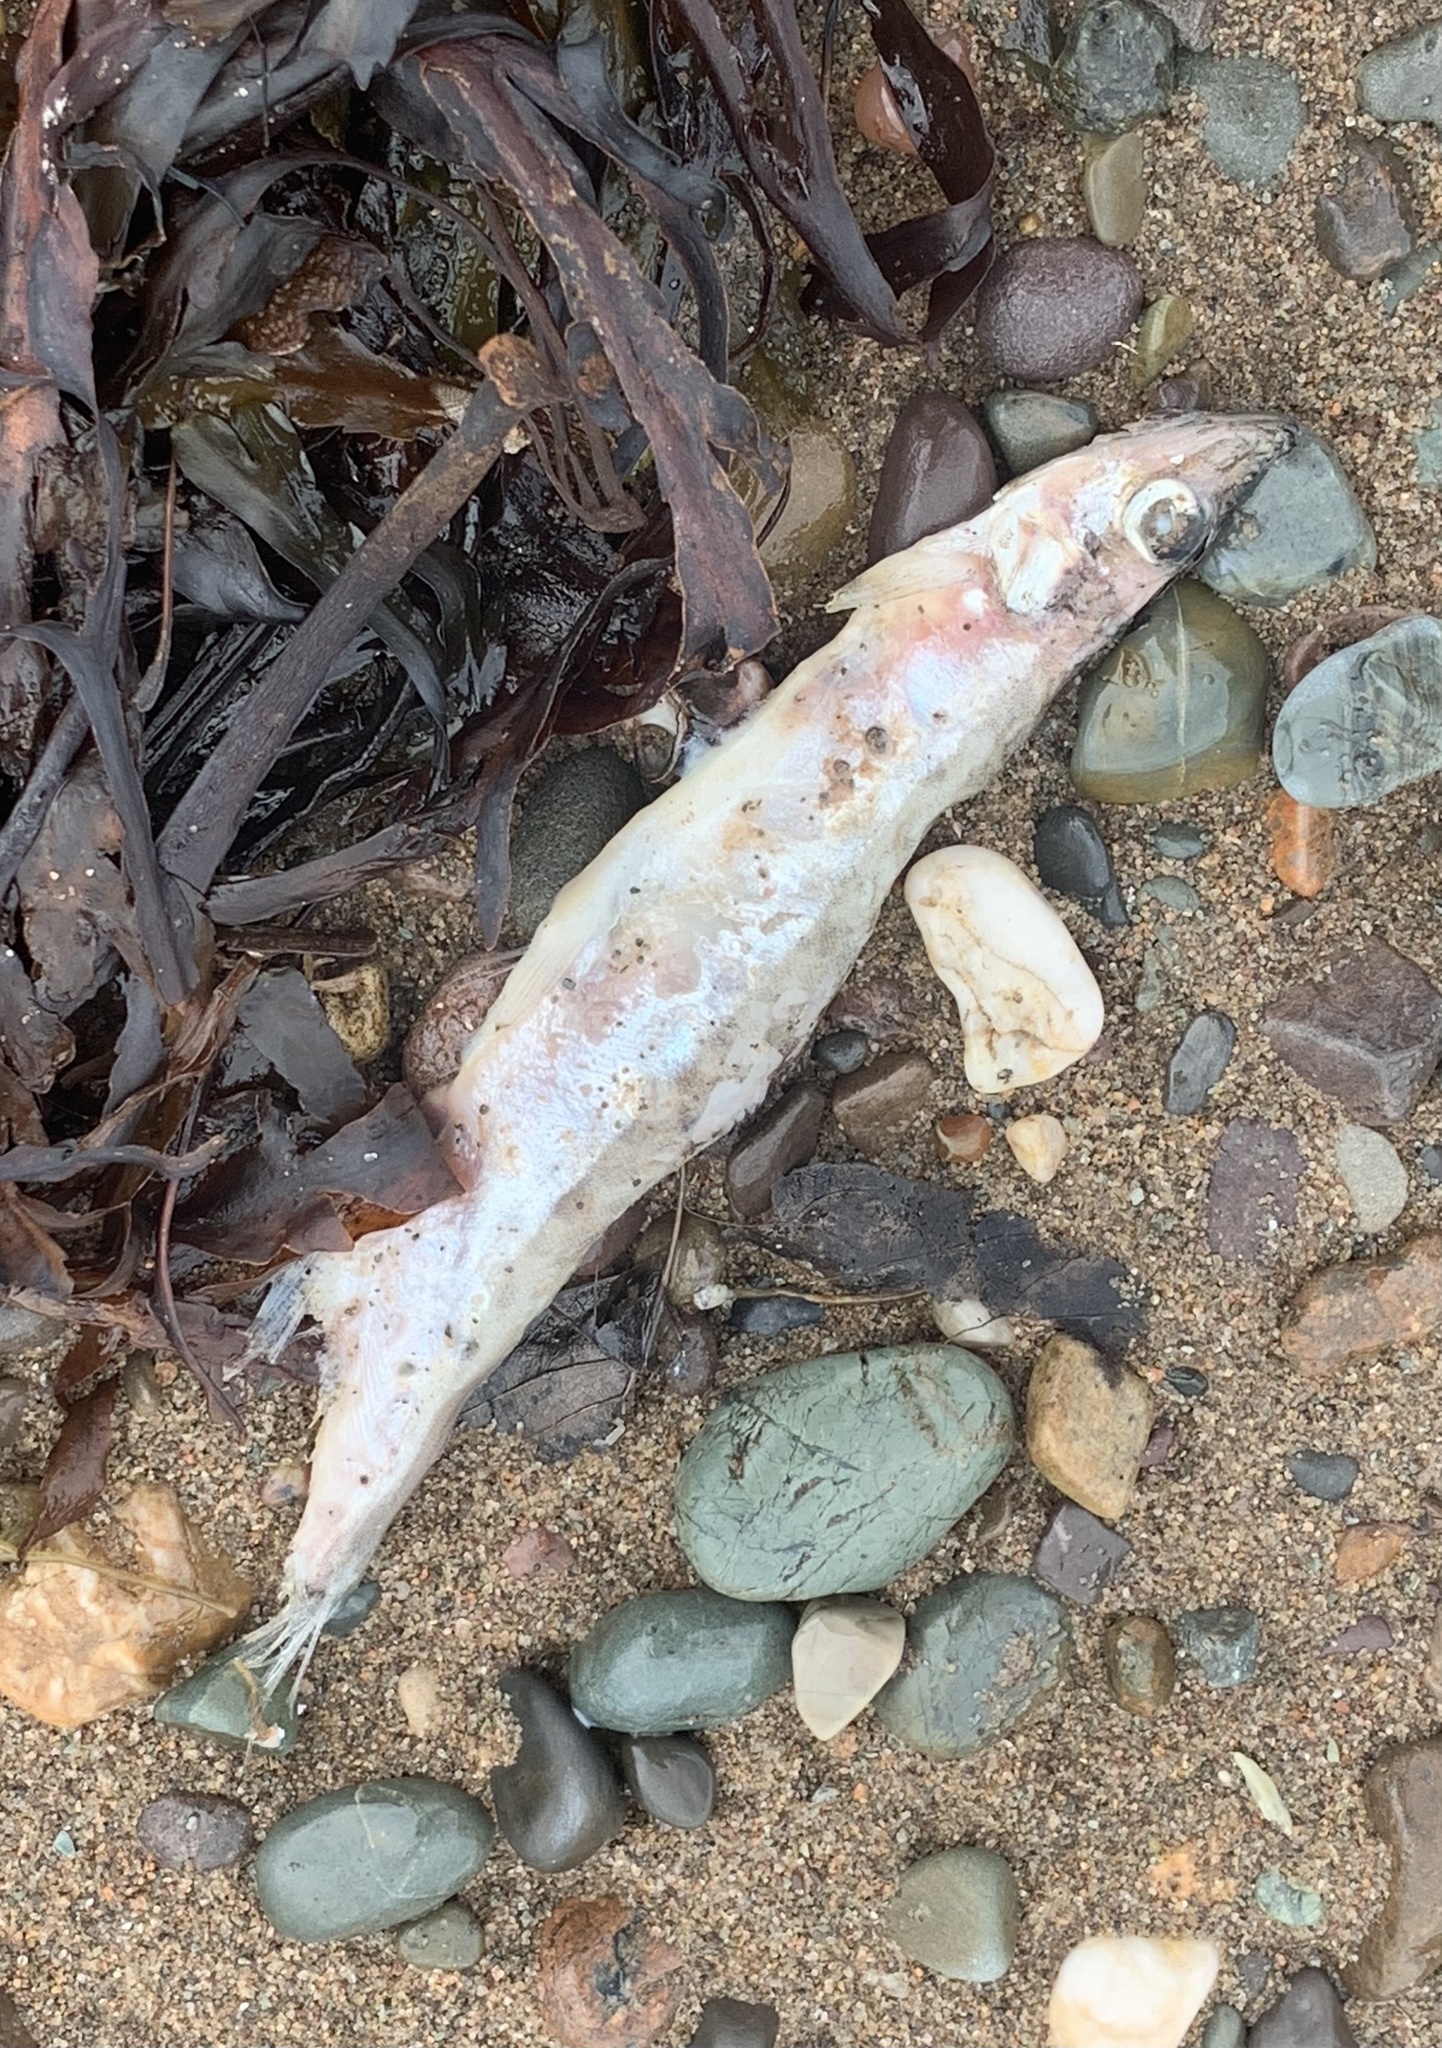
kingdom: Animalia
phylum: Chordata
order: Osmeriformes
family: Osmeridae
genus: Mallotus
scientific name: Mallotus villosus
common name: Capelin
